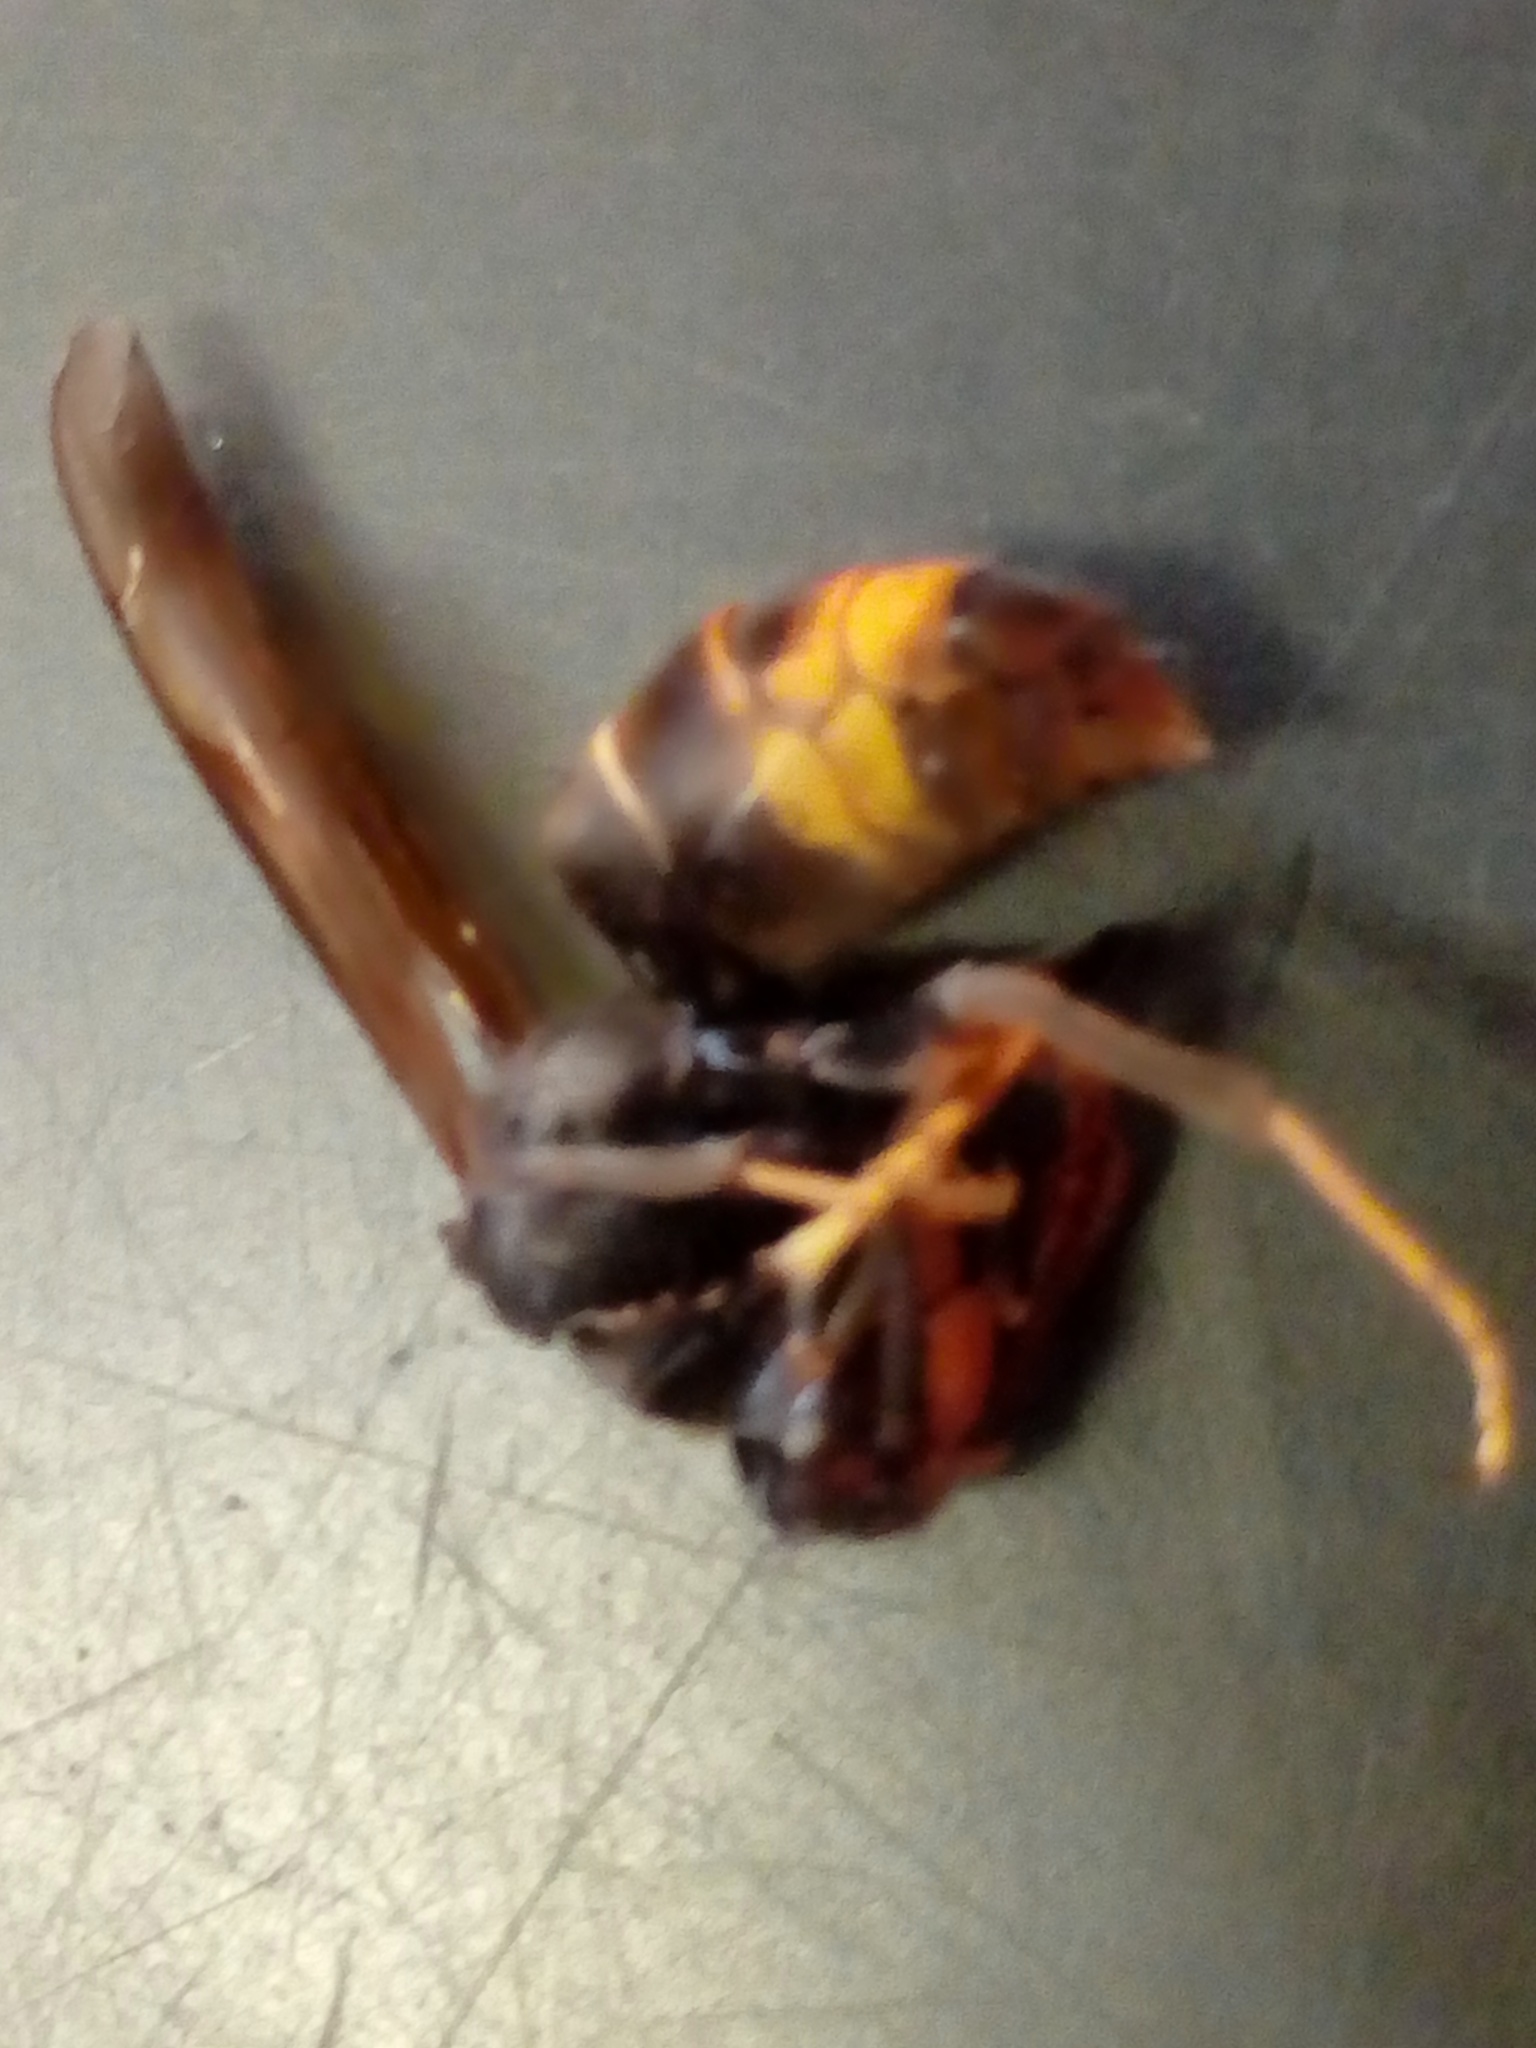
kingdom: Animalia
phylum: Arthropoda
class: Insecta
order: Hymenoptera
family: Vespidae
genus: Vespa
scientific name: Vespa velutina
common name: Asian hornet
